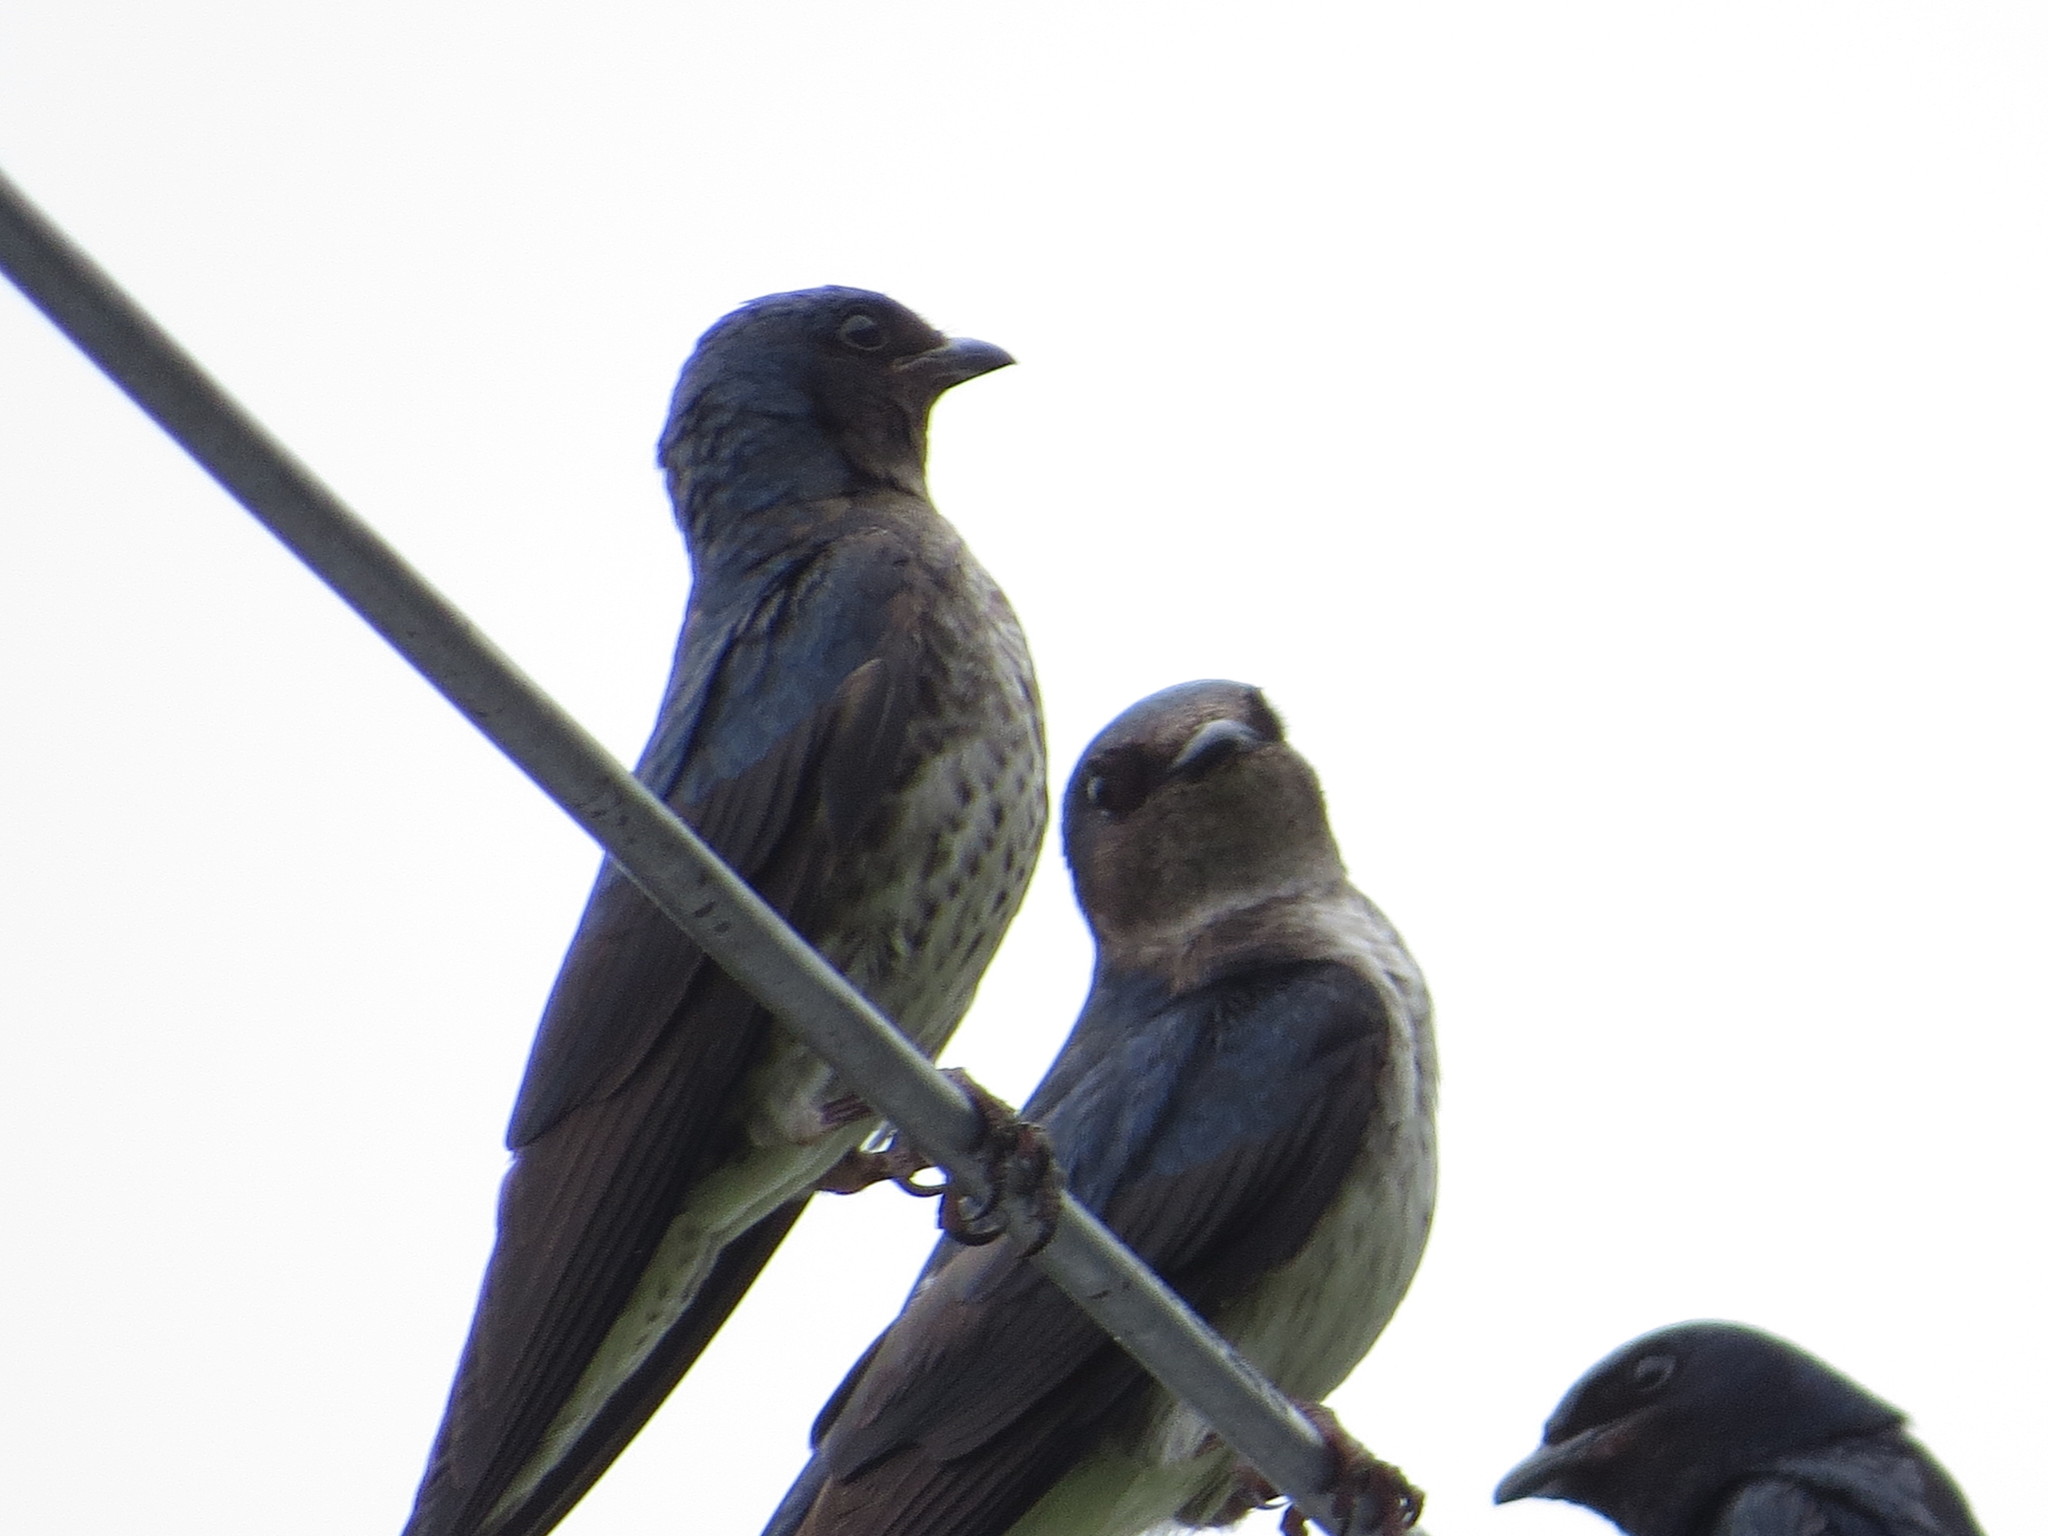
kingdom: Animalia
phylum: Chordata
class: Aves
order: Passeriformes
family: Hirundinidae
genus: Progne
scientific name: Progne chalybea
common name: Grey-breasted martin
